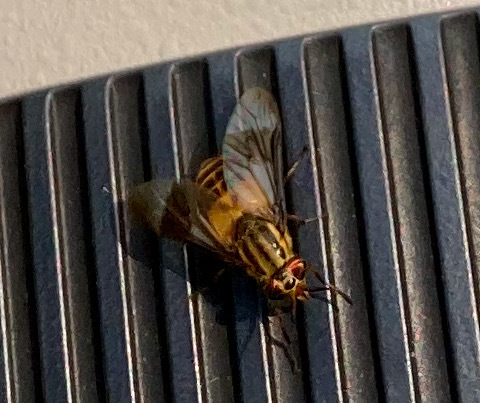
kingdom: Animalia
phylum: Arthropoda
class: Insecta
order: Diptera
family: Tabanidae
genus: Chrysops
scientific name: Chrysops geminatus
